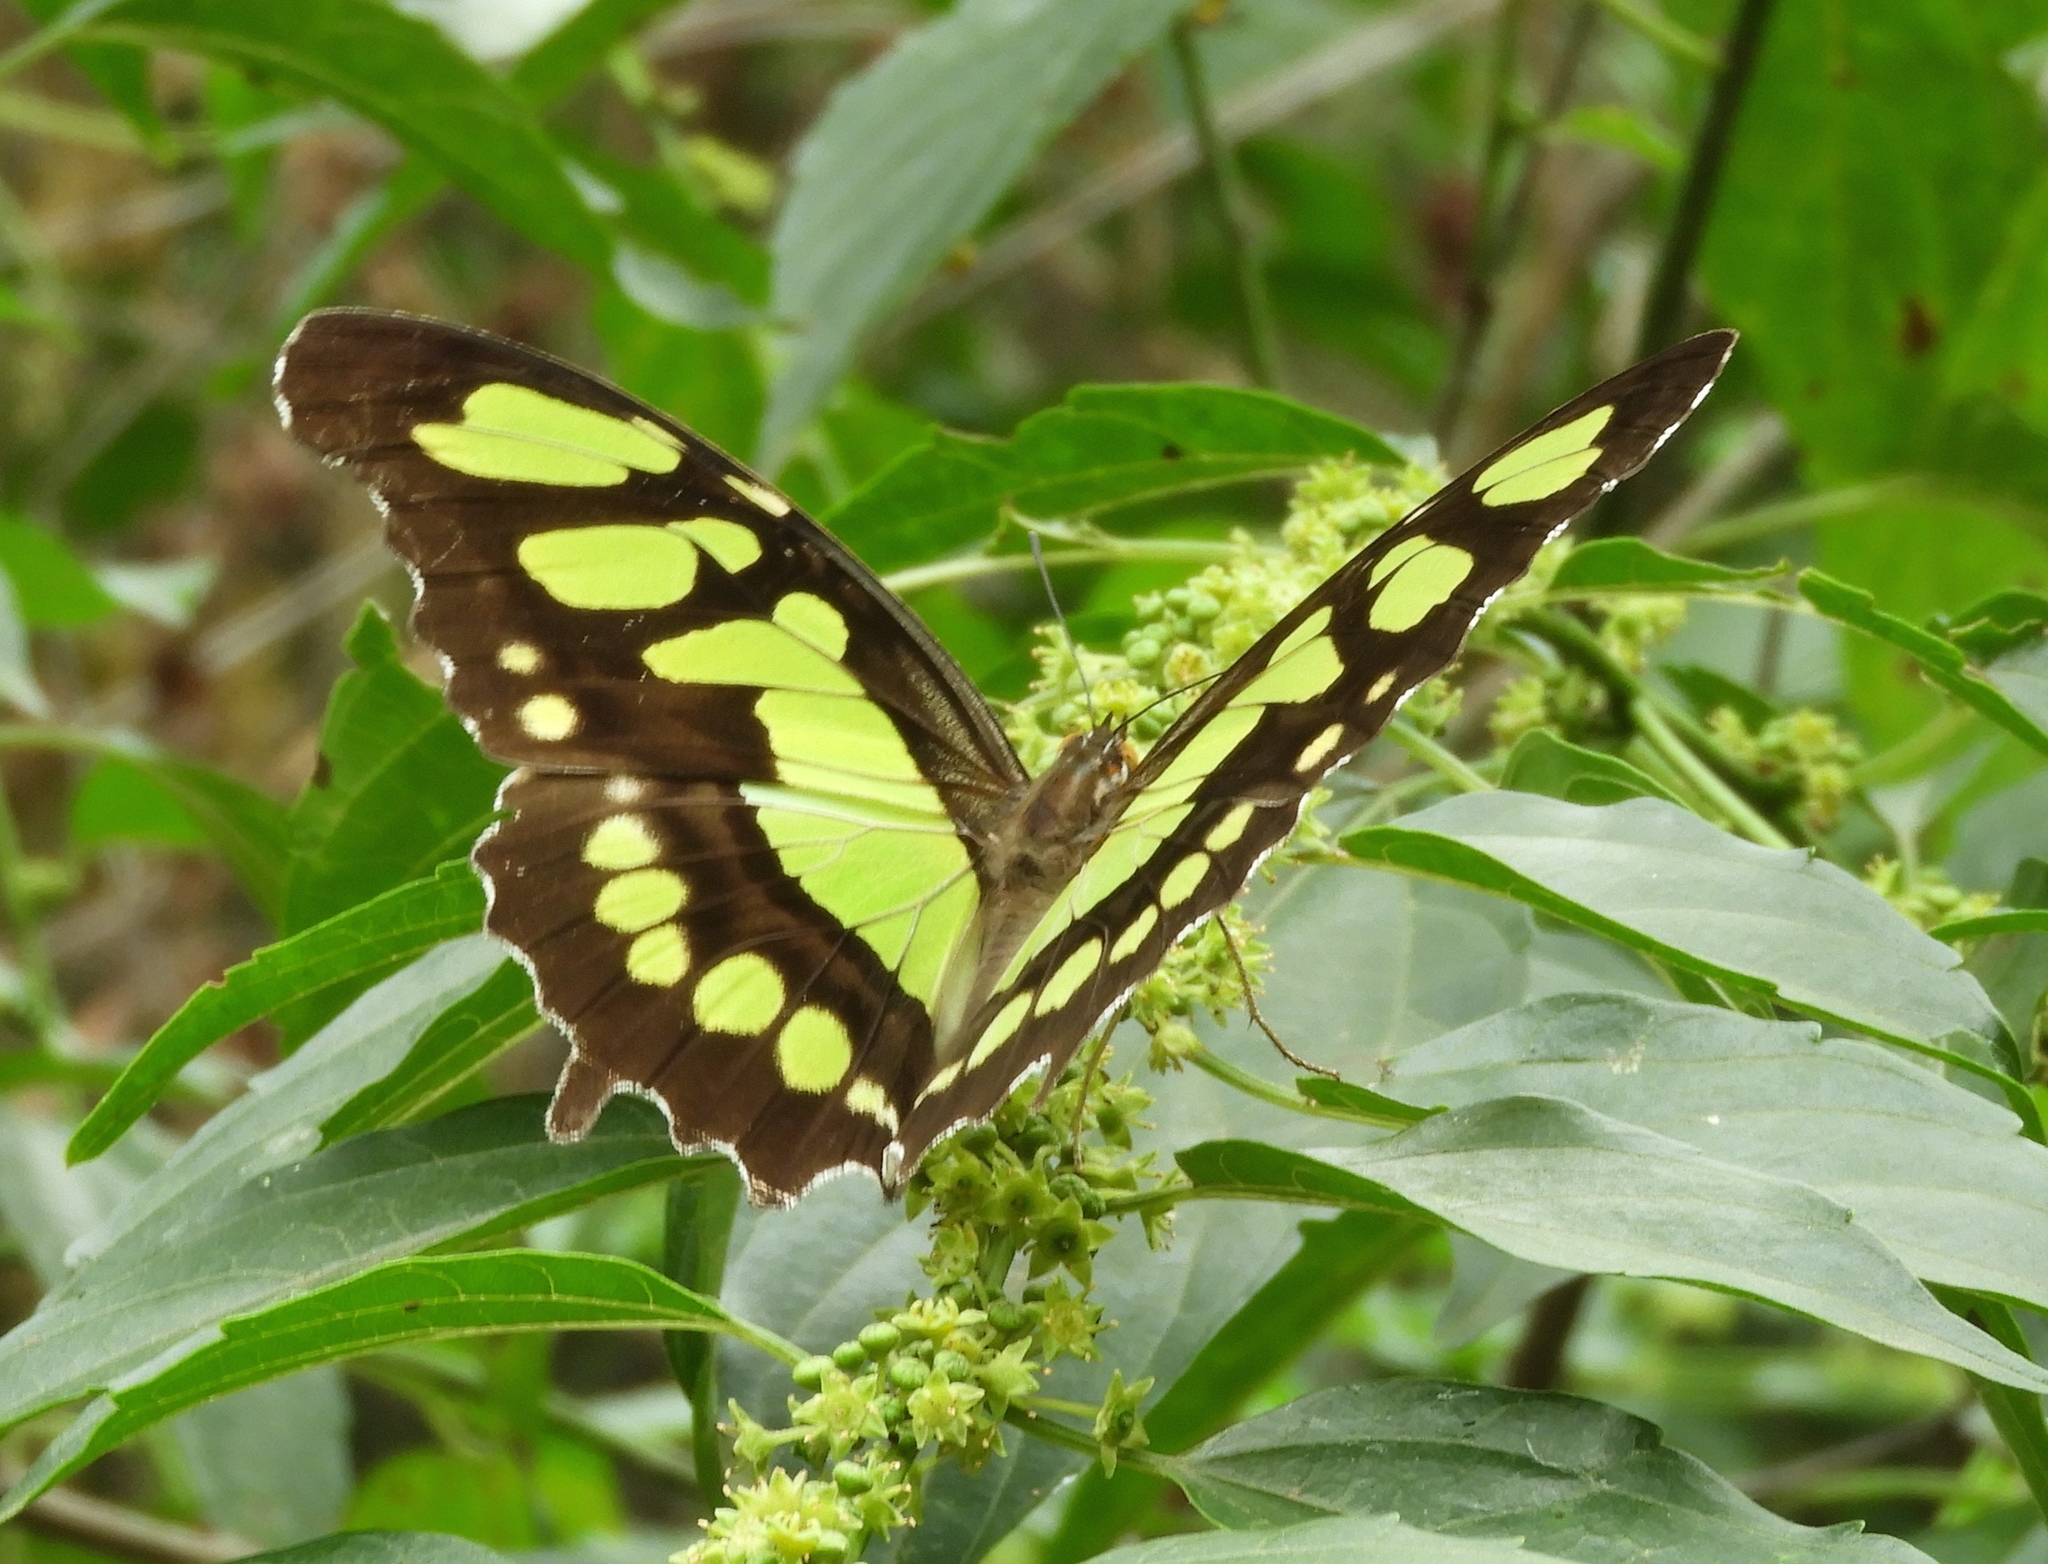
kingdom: Animalia
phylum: Arthropoda
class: Insecta
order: Lepidoptera
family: Nymphalidae
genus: Siproeta
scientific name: Siproeta stelenes
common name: Malachite
